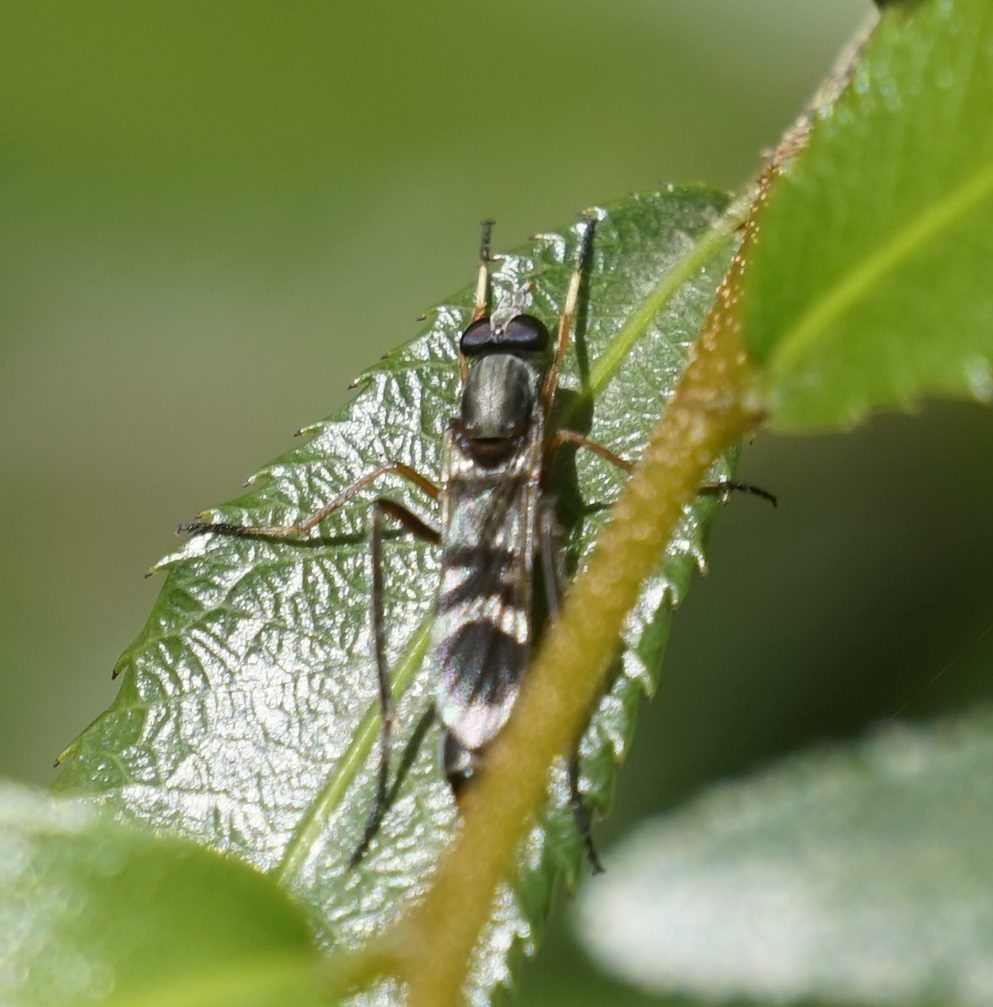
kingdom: Animalia
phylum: Arthropoda
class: Insecta
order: Diptera
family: Therevidae
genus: Ectinorhynchus
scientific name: Ectinorhynchus terminalis
